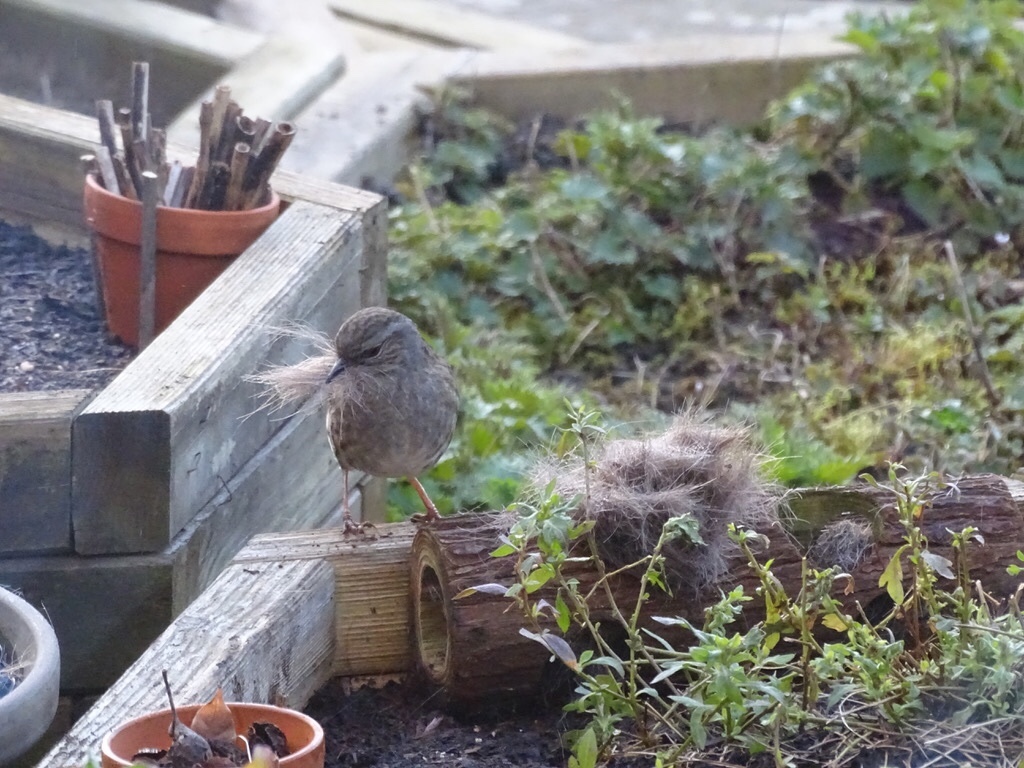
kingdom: Animalia
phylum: Chordata
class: Aves
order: Passeriformes
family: Prunellidae
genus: Prunella
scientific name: Prunella modularis
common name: Dunnock
